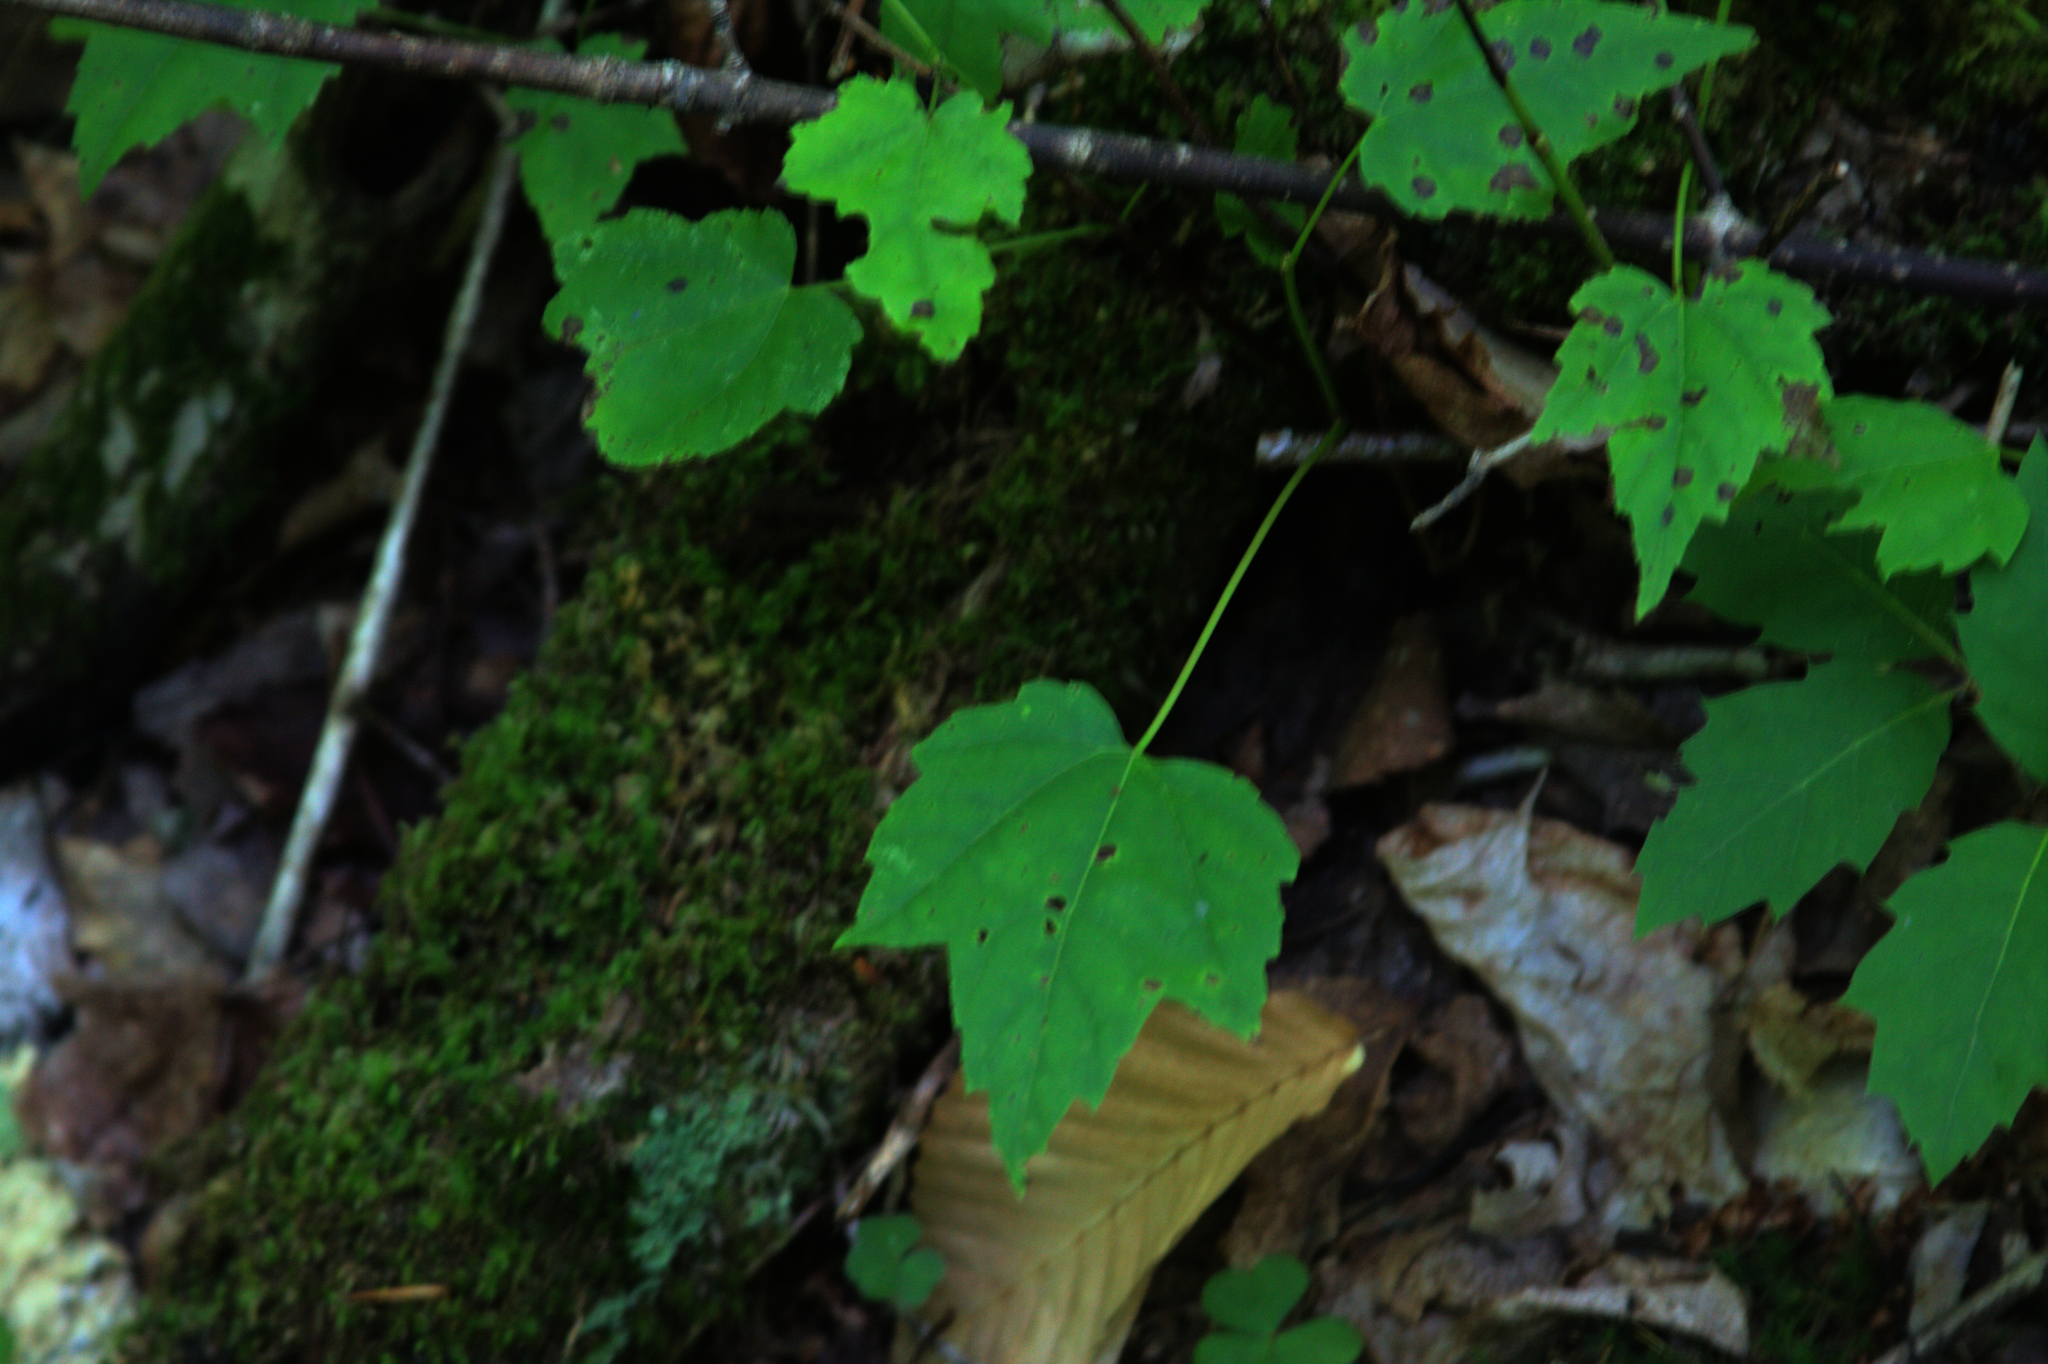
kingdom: Plantae
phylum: Tracheophyta
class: Magnoliopsida
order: Sapindales
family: Sapindaceae
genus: Acer
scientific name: Acer rubrum
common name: Red maple
